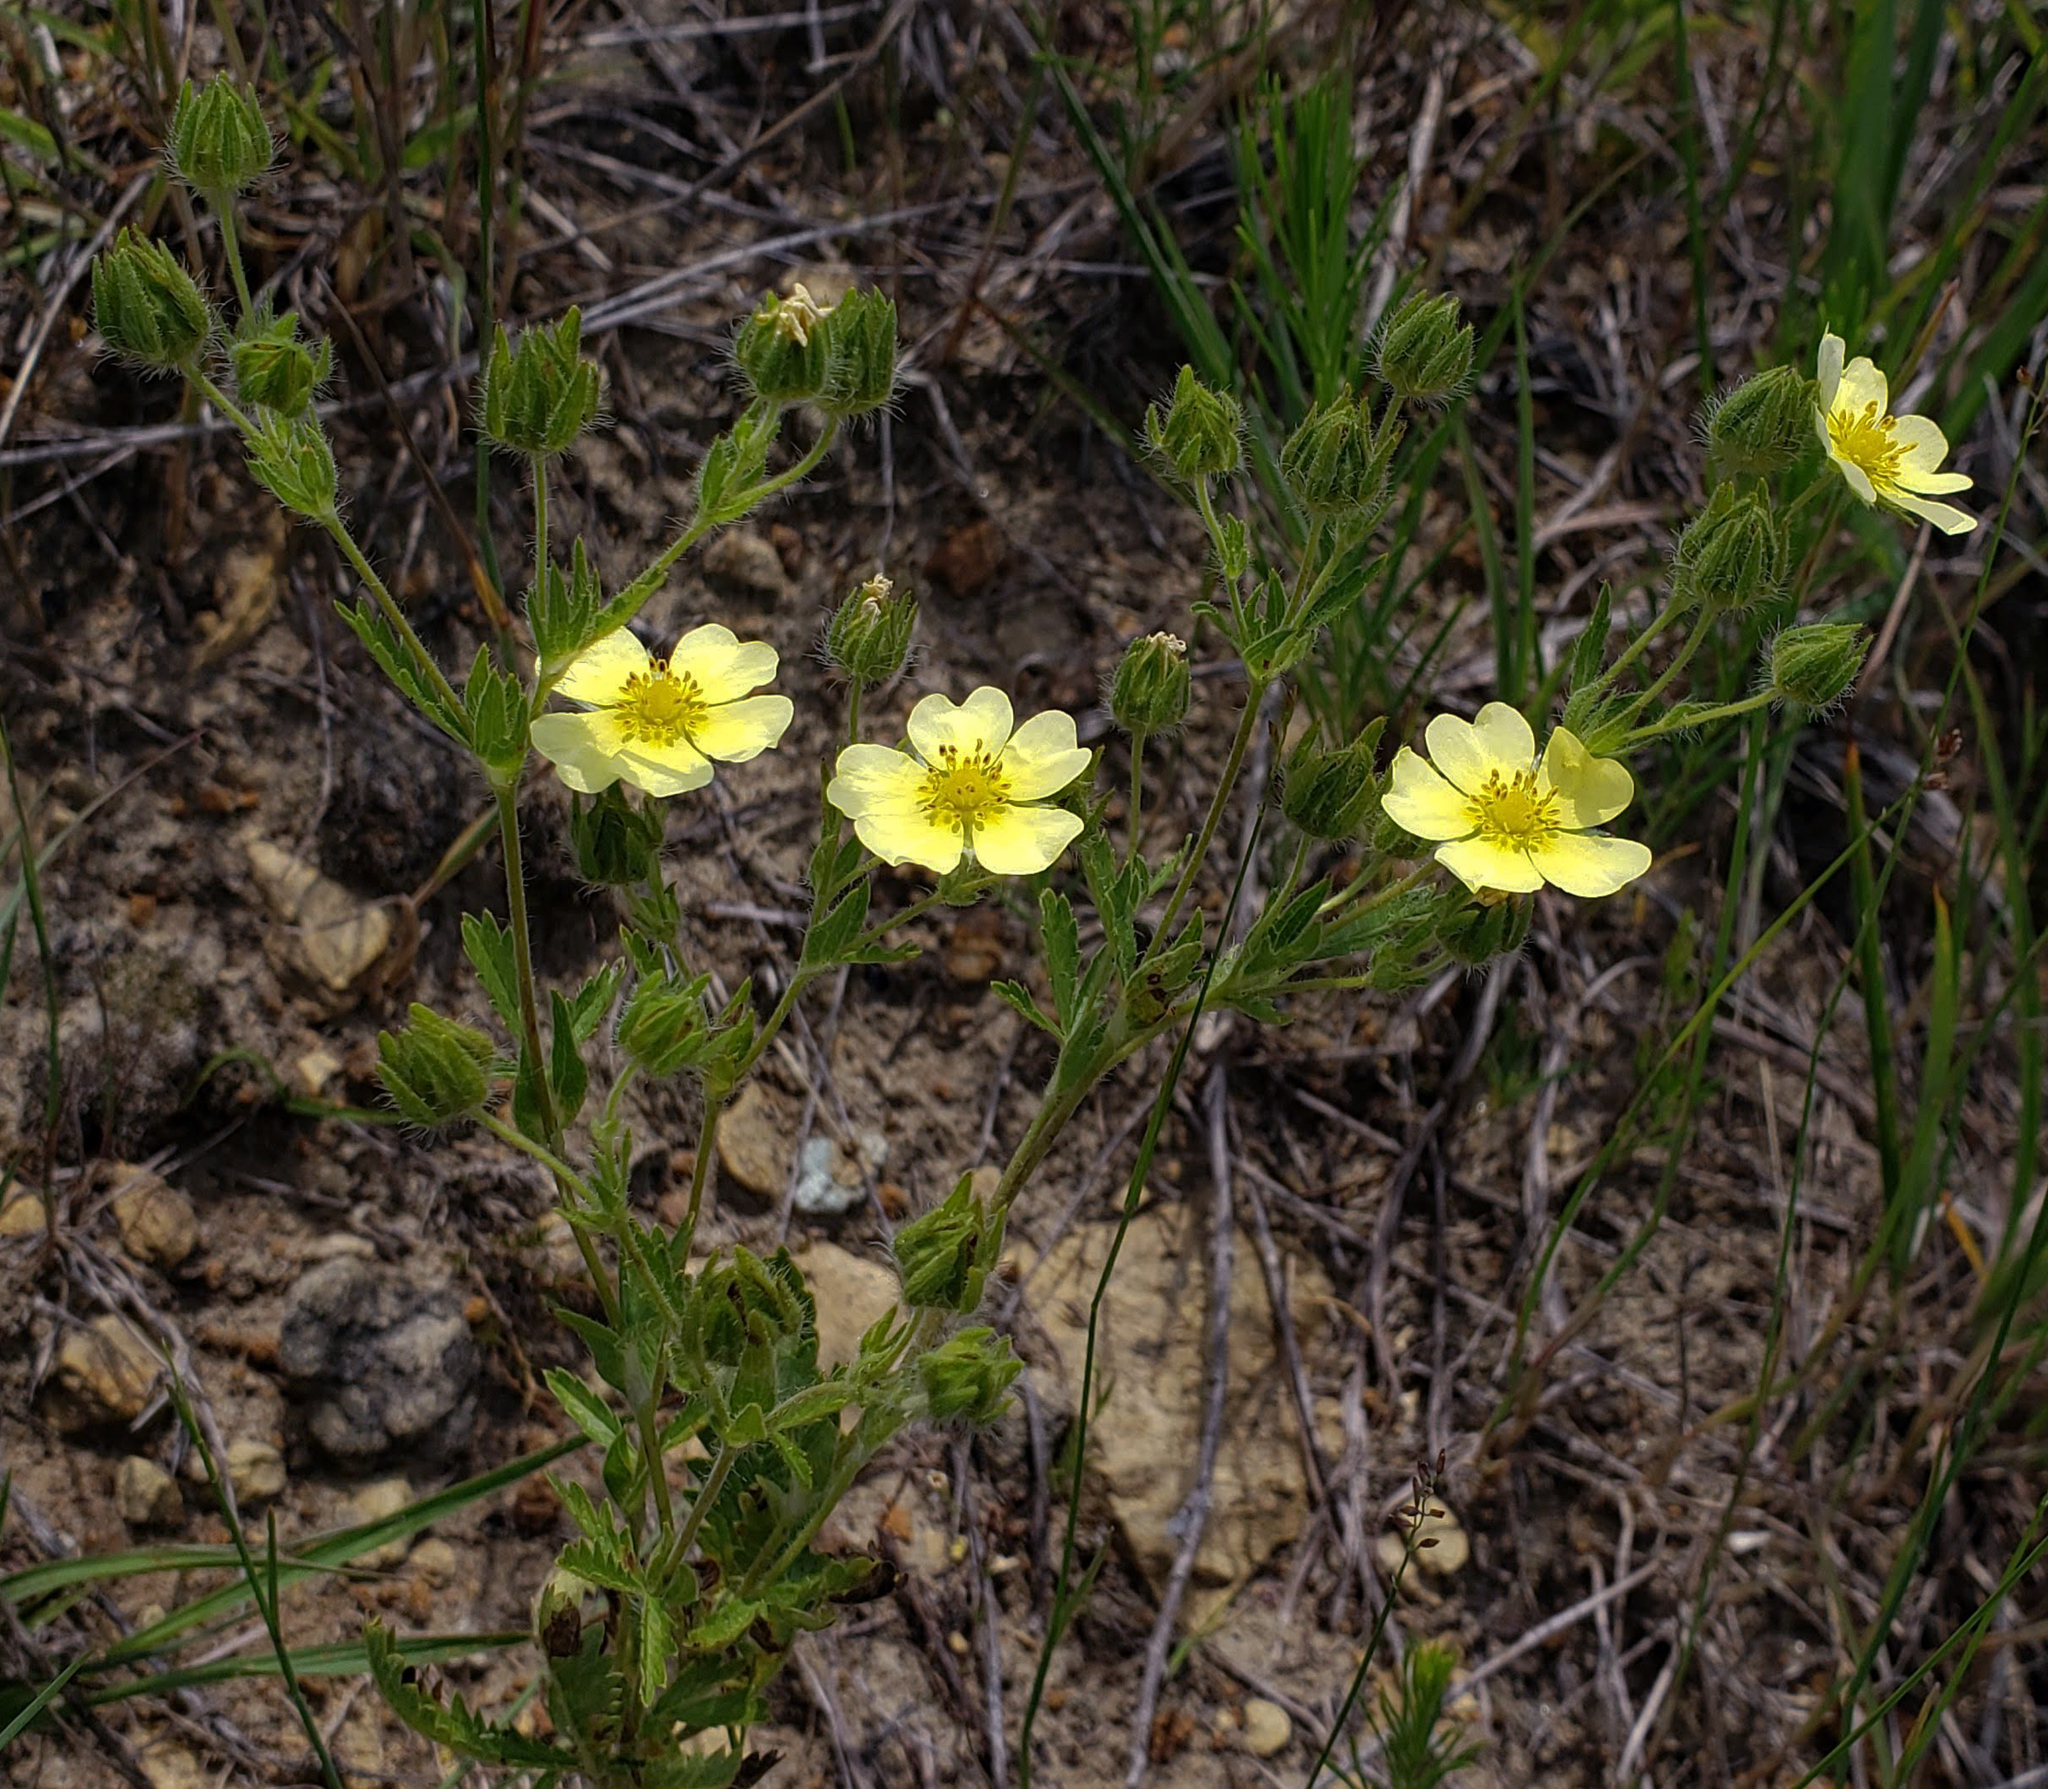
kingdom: Plantae
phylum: Tracheophyta
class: Magnoliopsida
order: Rosales
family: Rosaceae
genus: Potentilla
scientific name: Potentilla recta
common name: Sulphur cinquefoil
